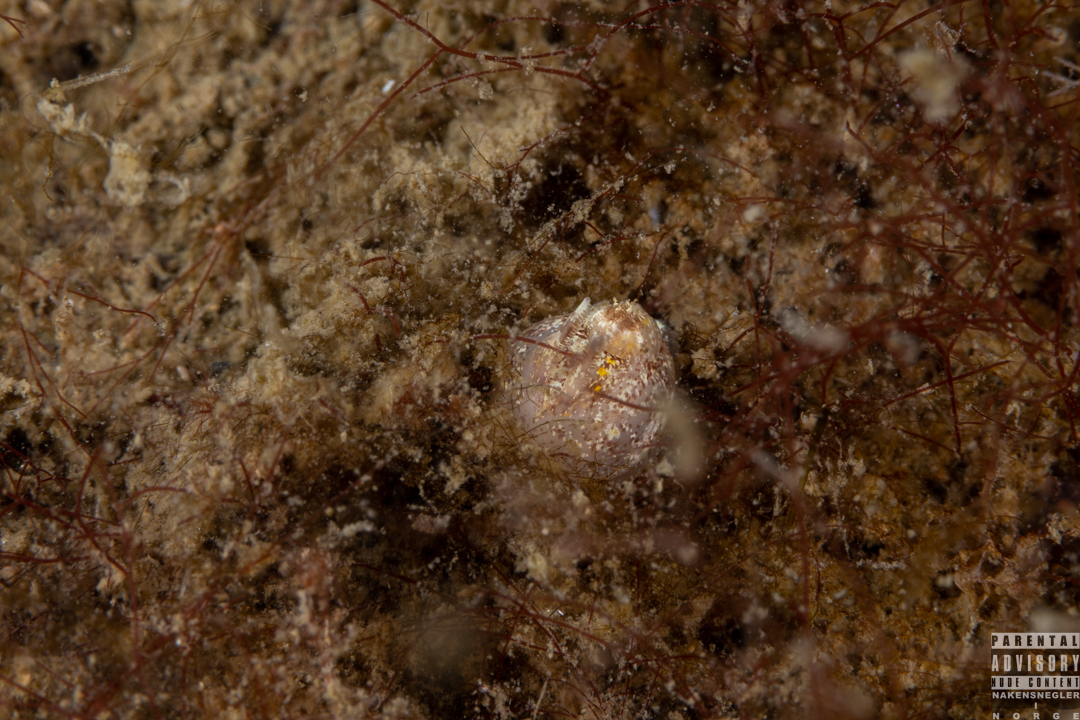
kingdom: Animalia
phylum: Mollusca
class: Gastropoda
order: Nudibranchia
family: Goniodorididae
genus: Okenia
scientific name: Okenia aspersa
